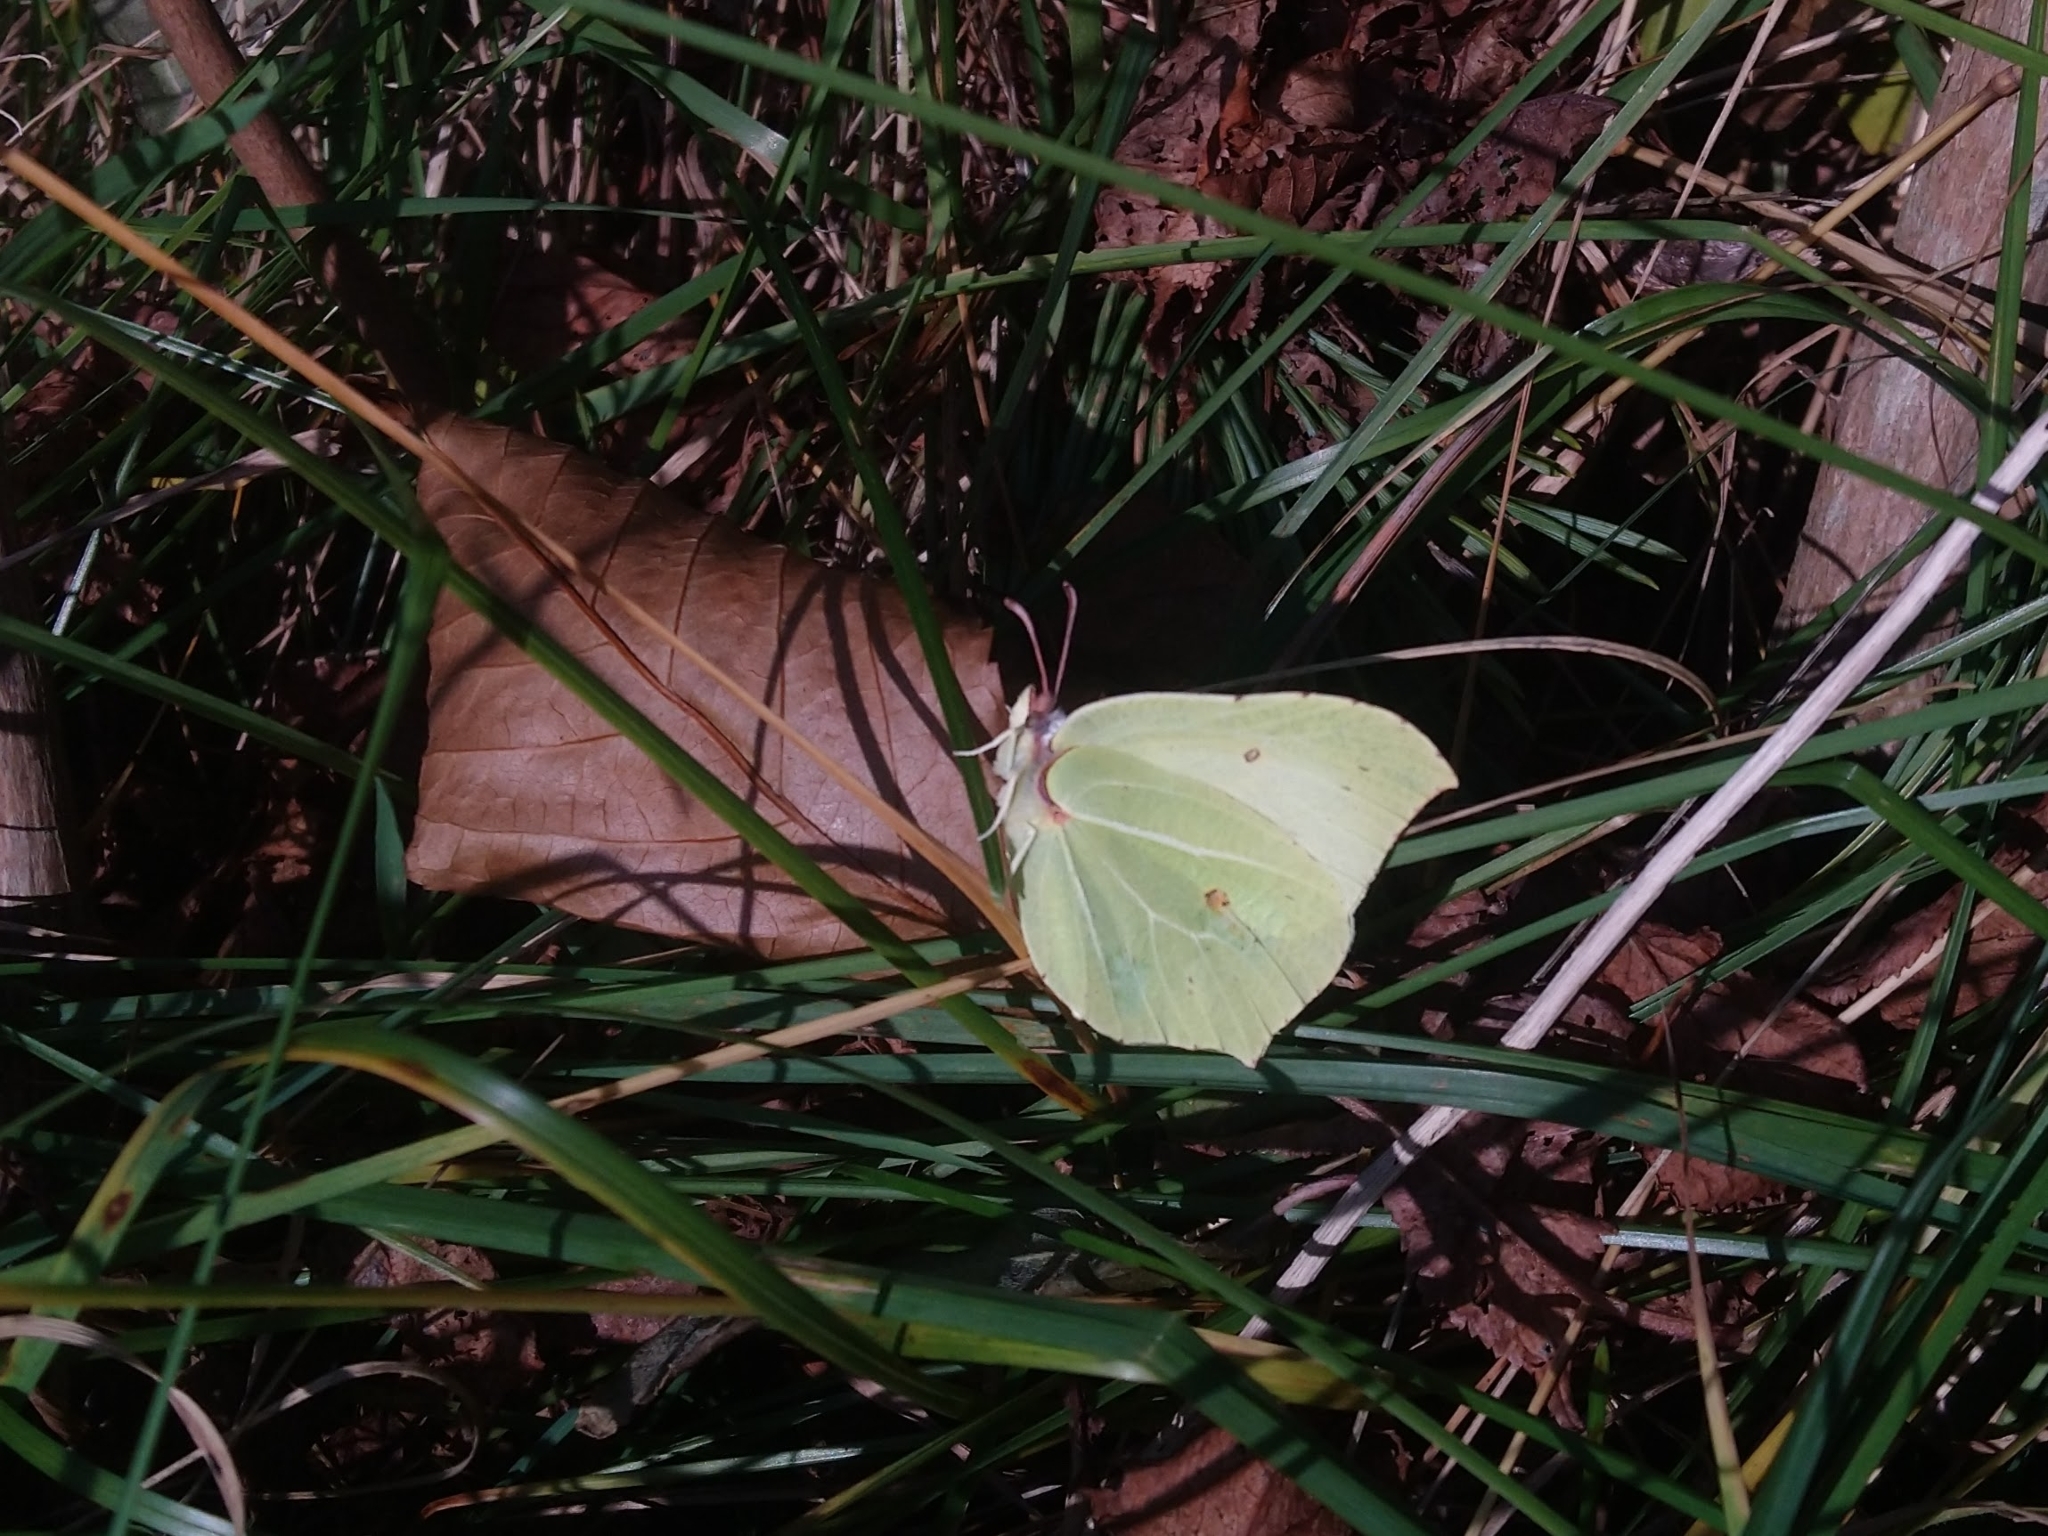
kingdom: Animalia
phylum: Arthropoda
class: Insecta
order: Lepidoptera
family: Pieridae
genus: Gonepteryx
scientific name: Gonepteryx rhamni
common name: Brimstone
